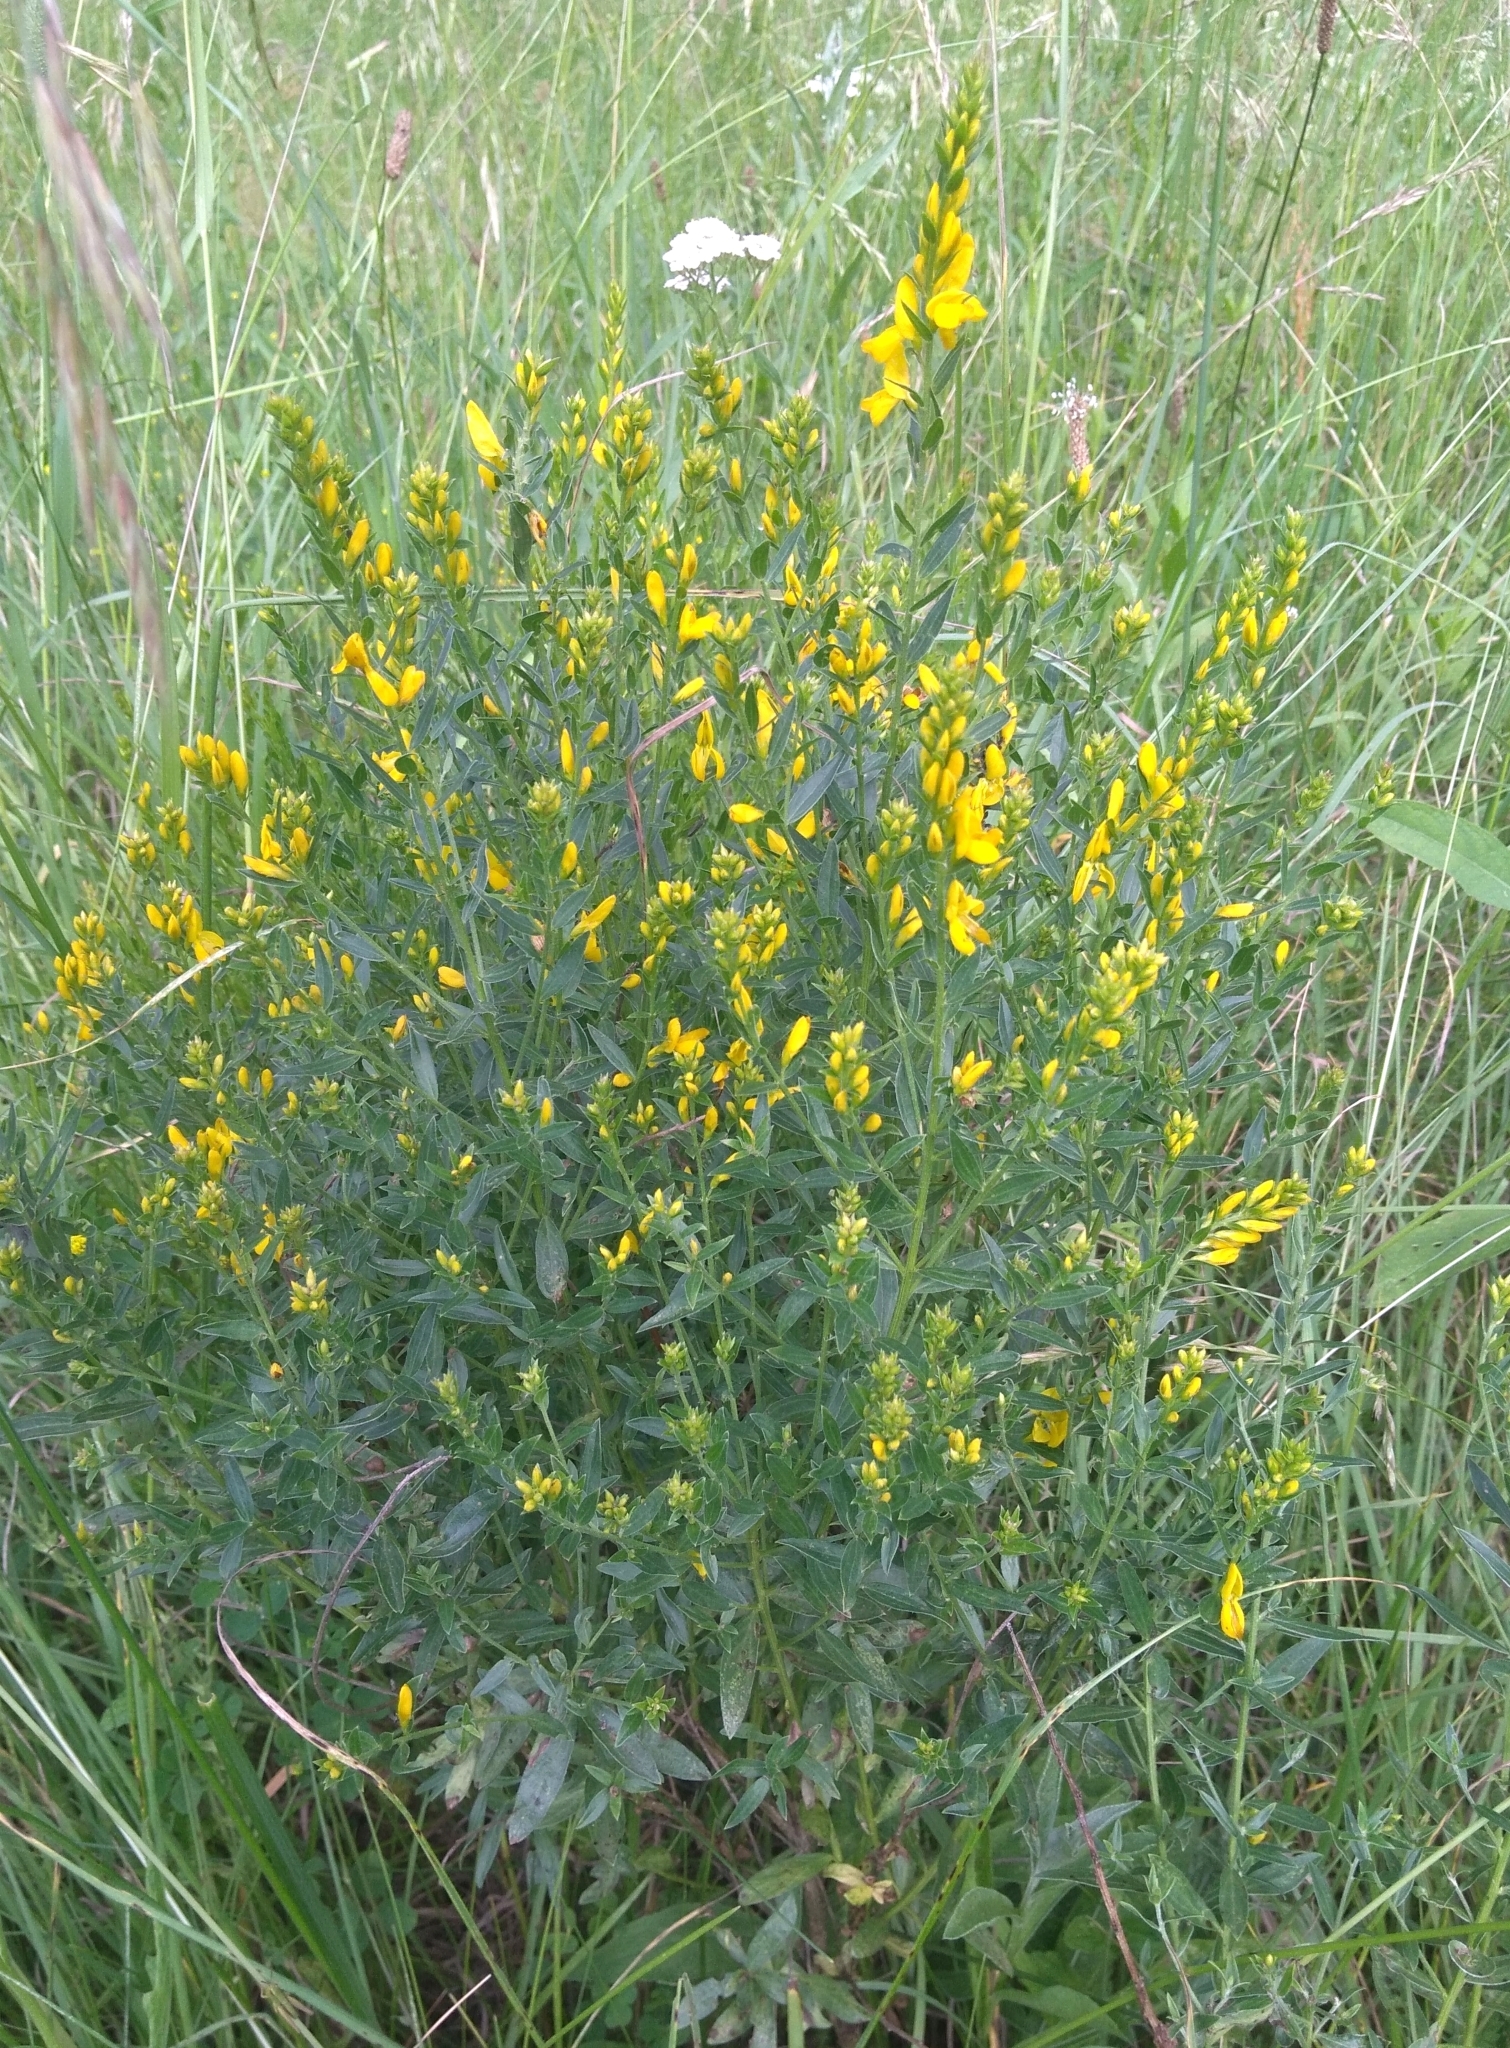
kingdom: Plantae
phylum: Tracheophyta
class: Magnoliopsida
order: Fabales
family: Fabaceae
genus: Genista
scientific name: Genista tinctoria
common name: Dyer's greenweed
